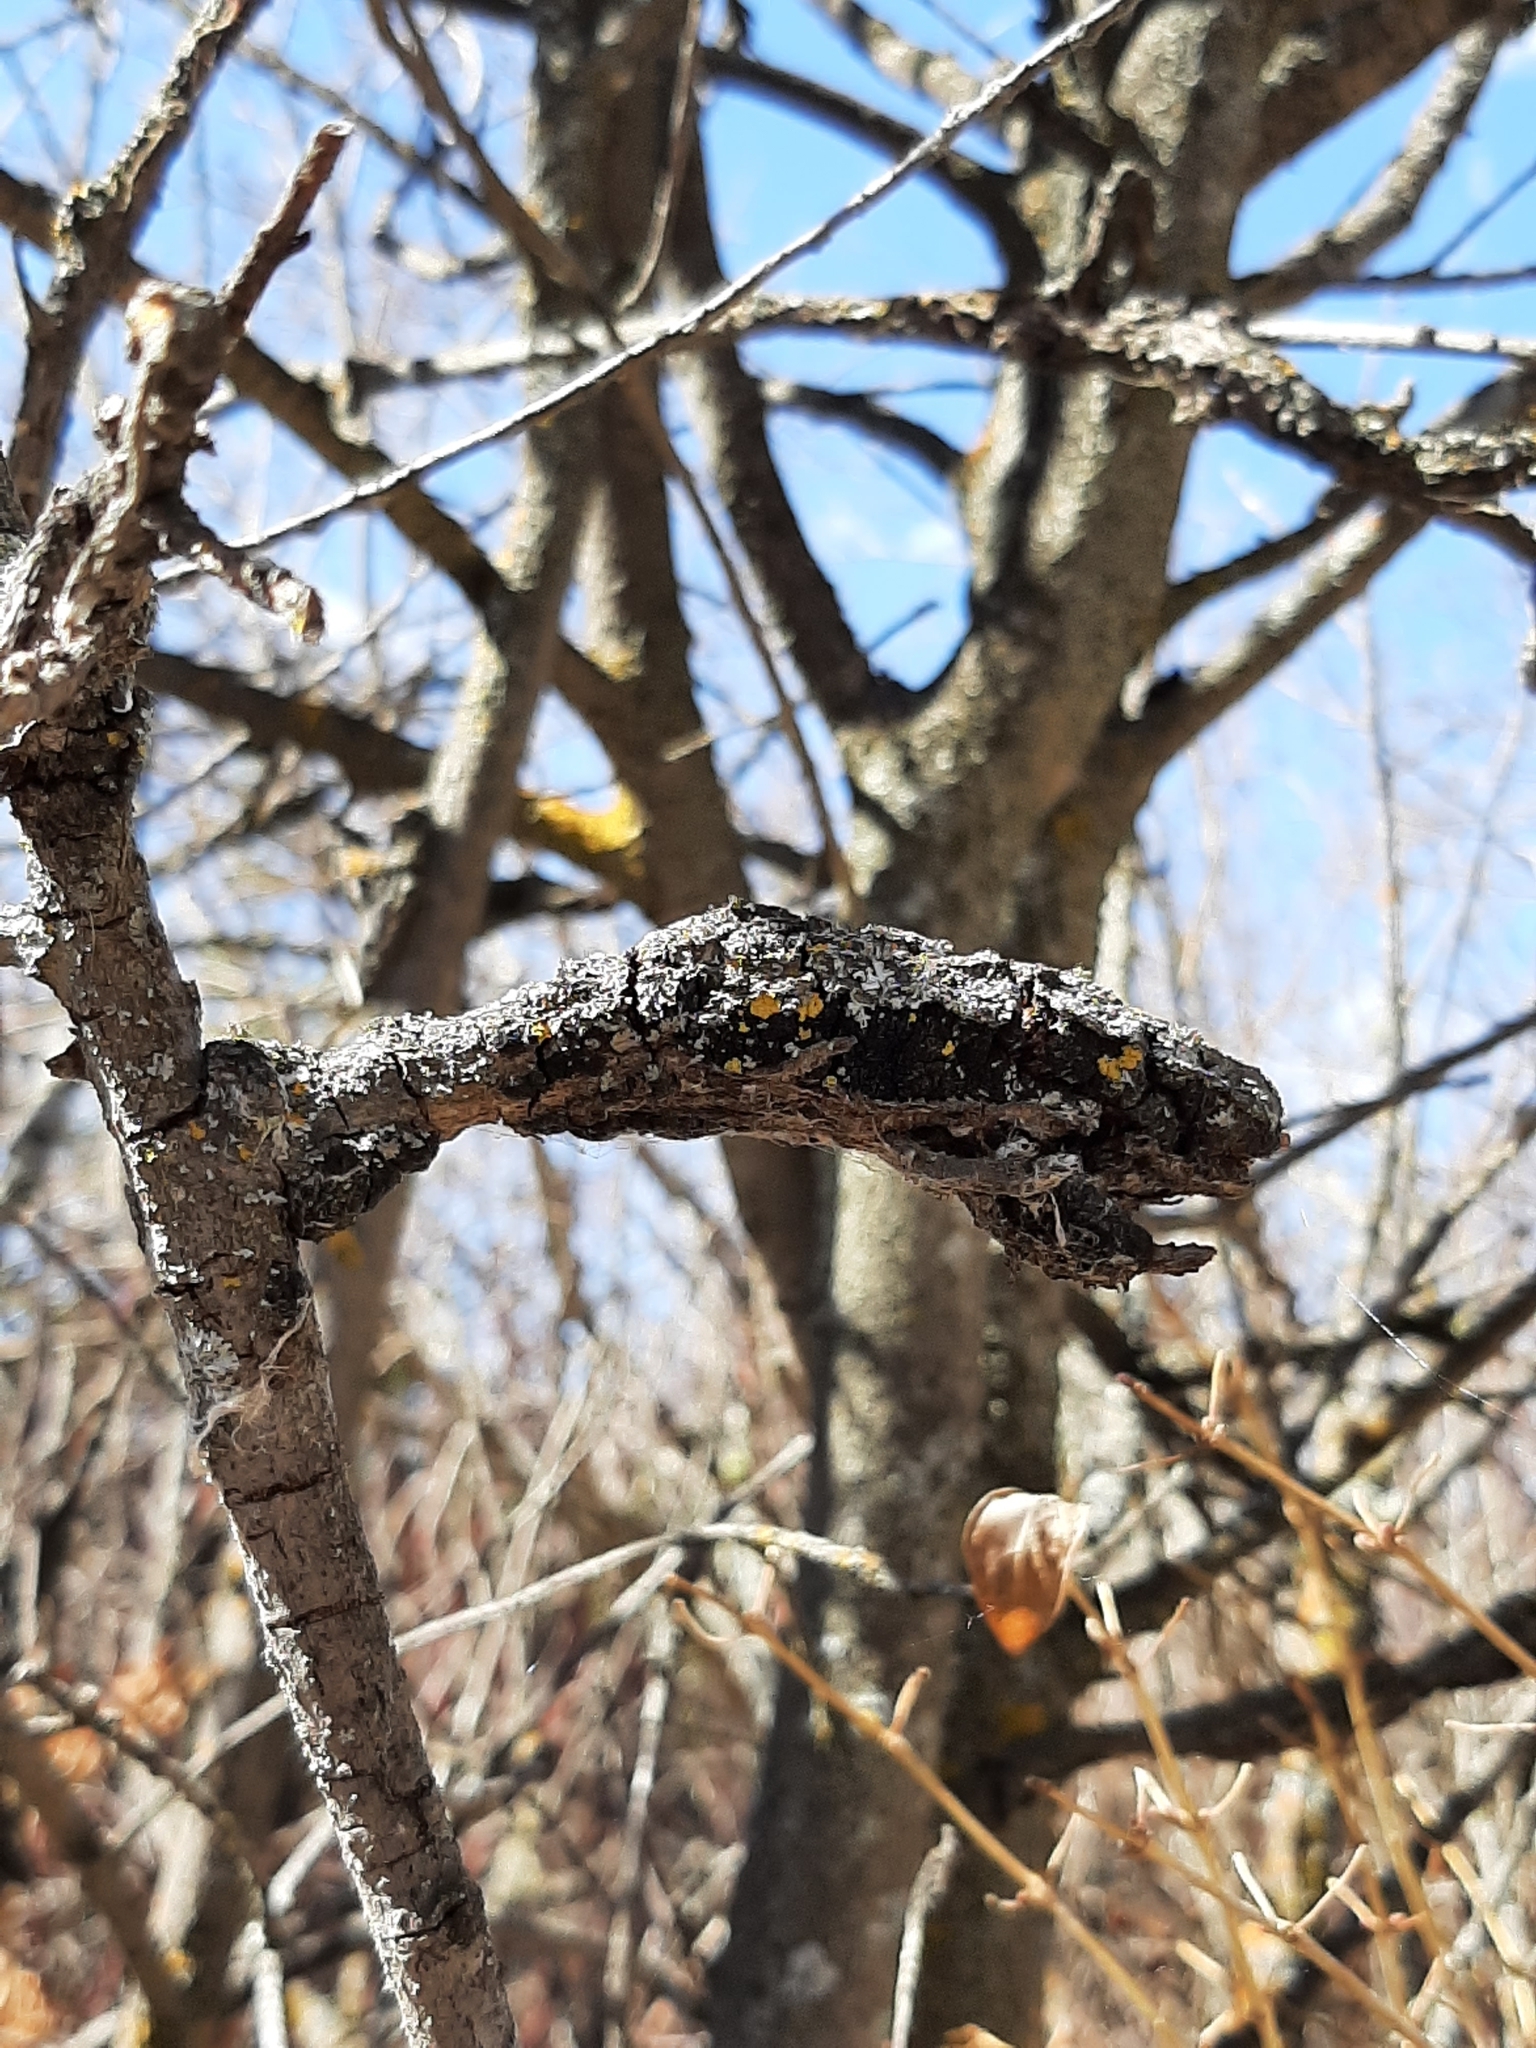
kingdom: Fungi
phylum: Ascomycota
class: Dothideomycetes
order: Venturiales
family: Venturiaceae
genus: Apiosporina
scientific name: Apiosporina morbosa
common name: Black knot
